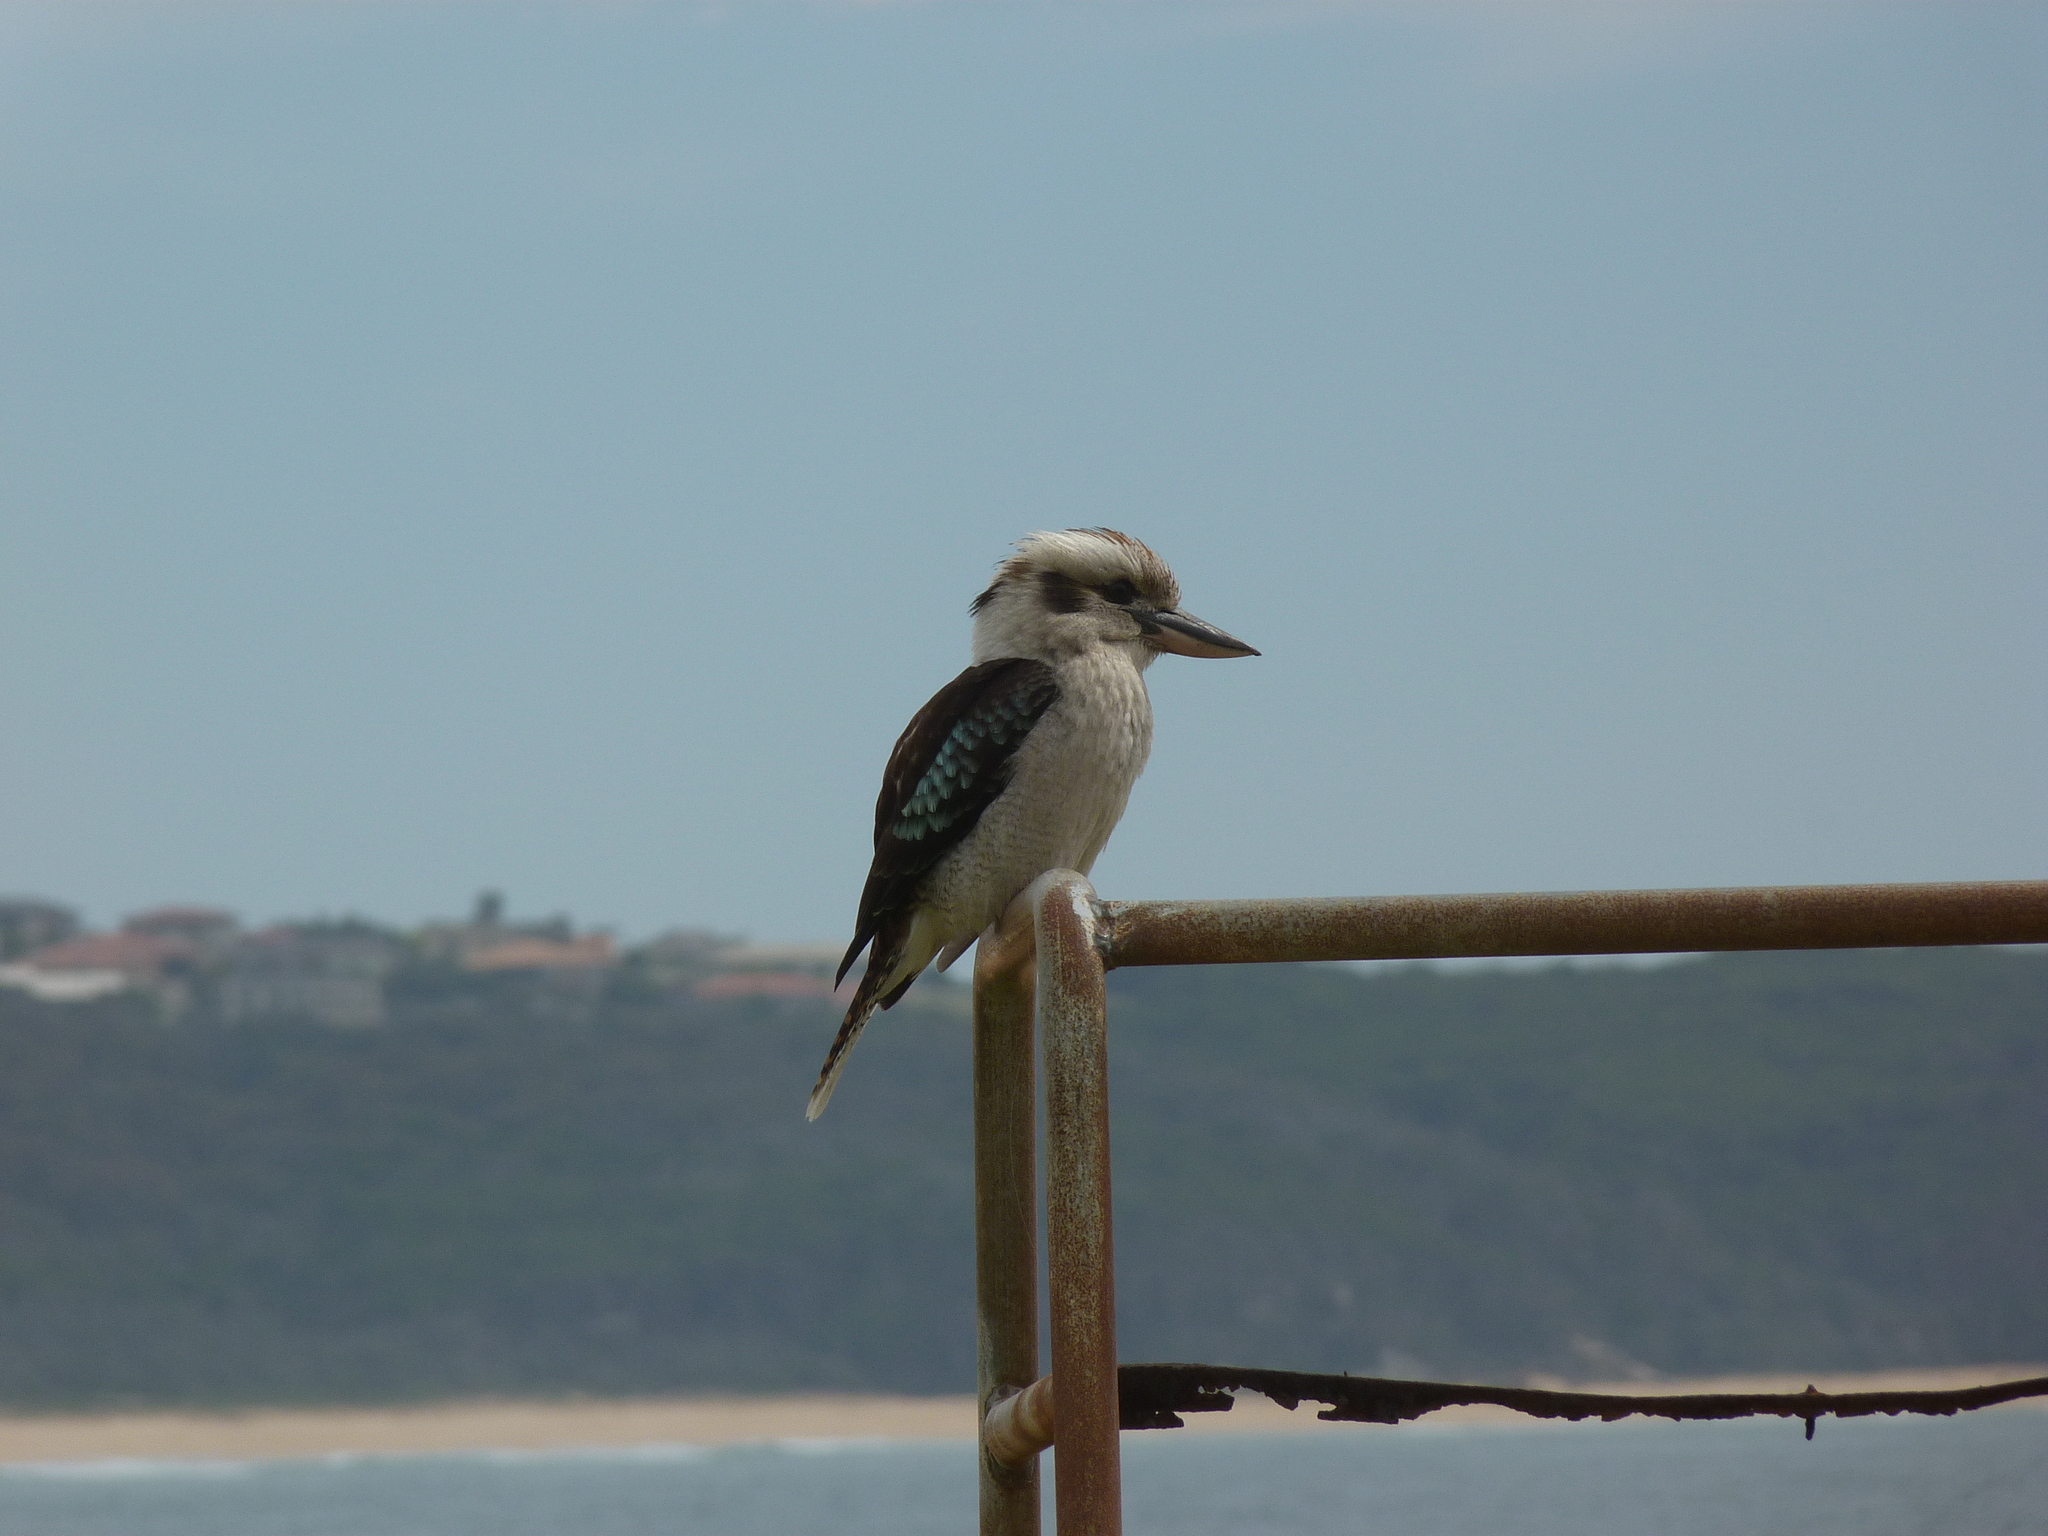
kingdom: Animalia
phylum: Chordata
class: Aves
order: Coraciiformes
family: Alcedinidae
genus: Dacelo
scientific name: Dacelo novaeguineae
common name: Laughing kookaburra
